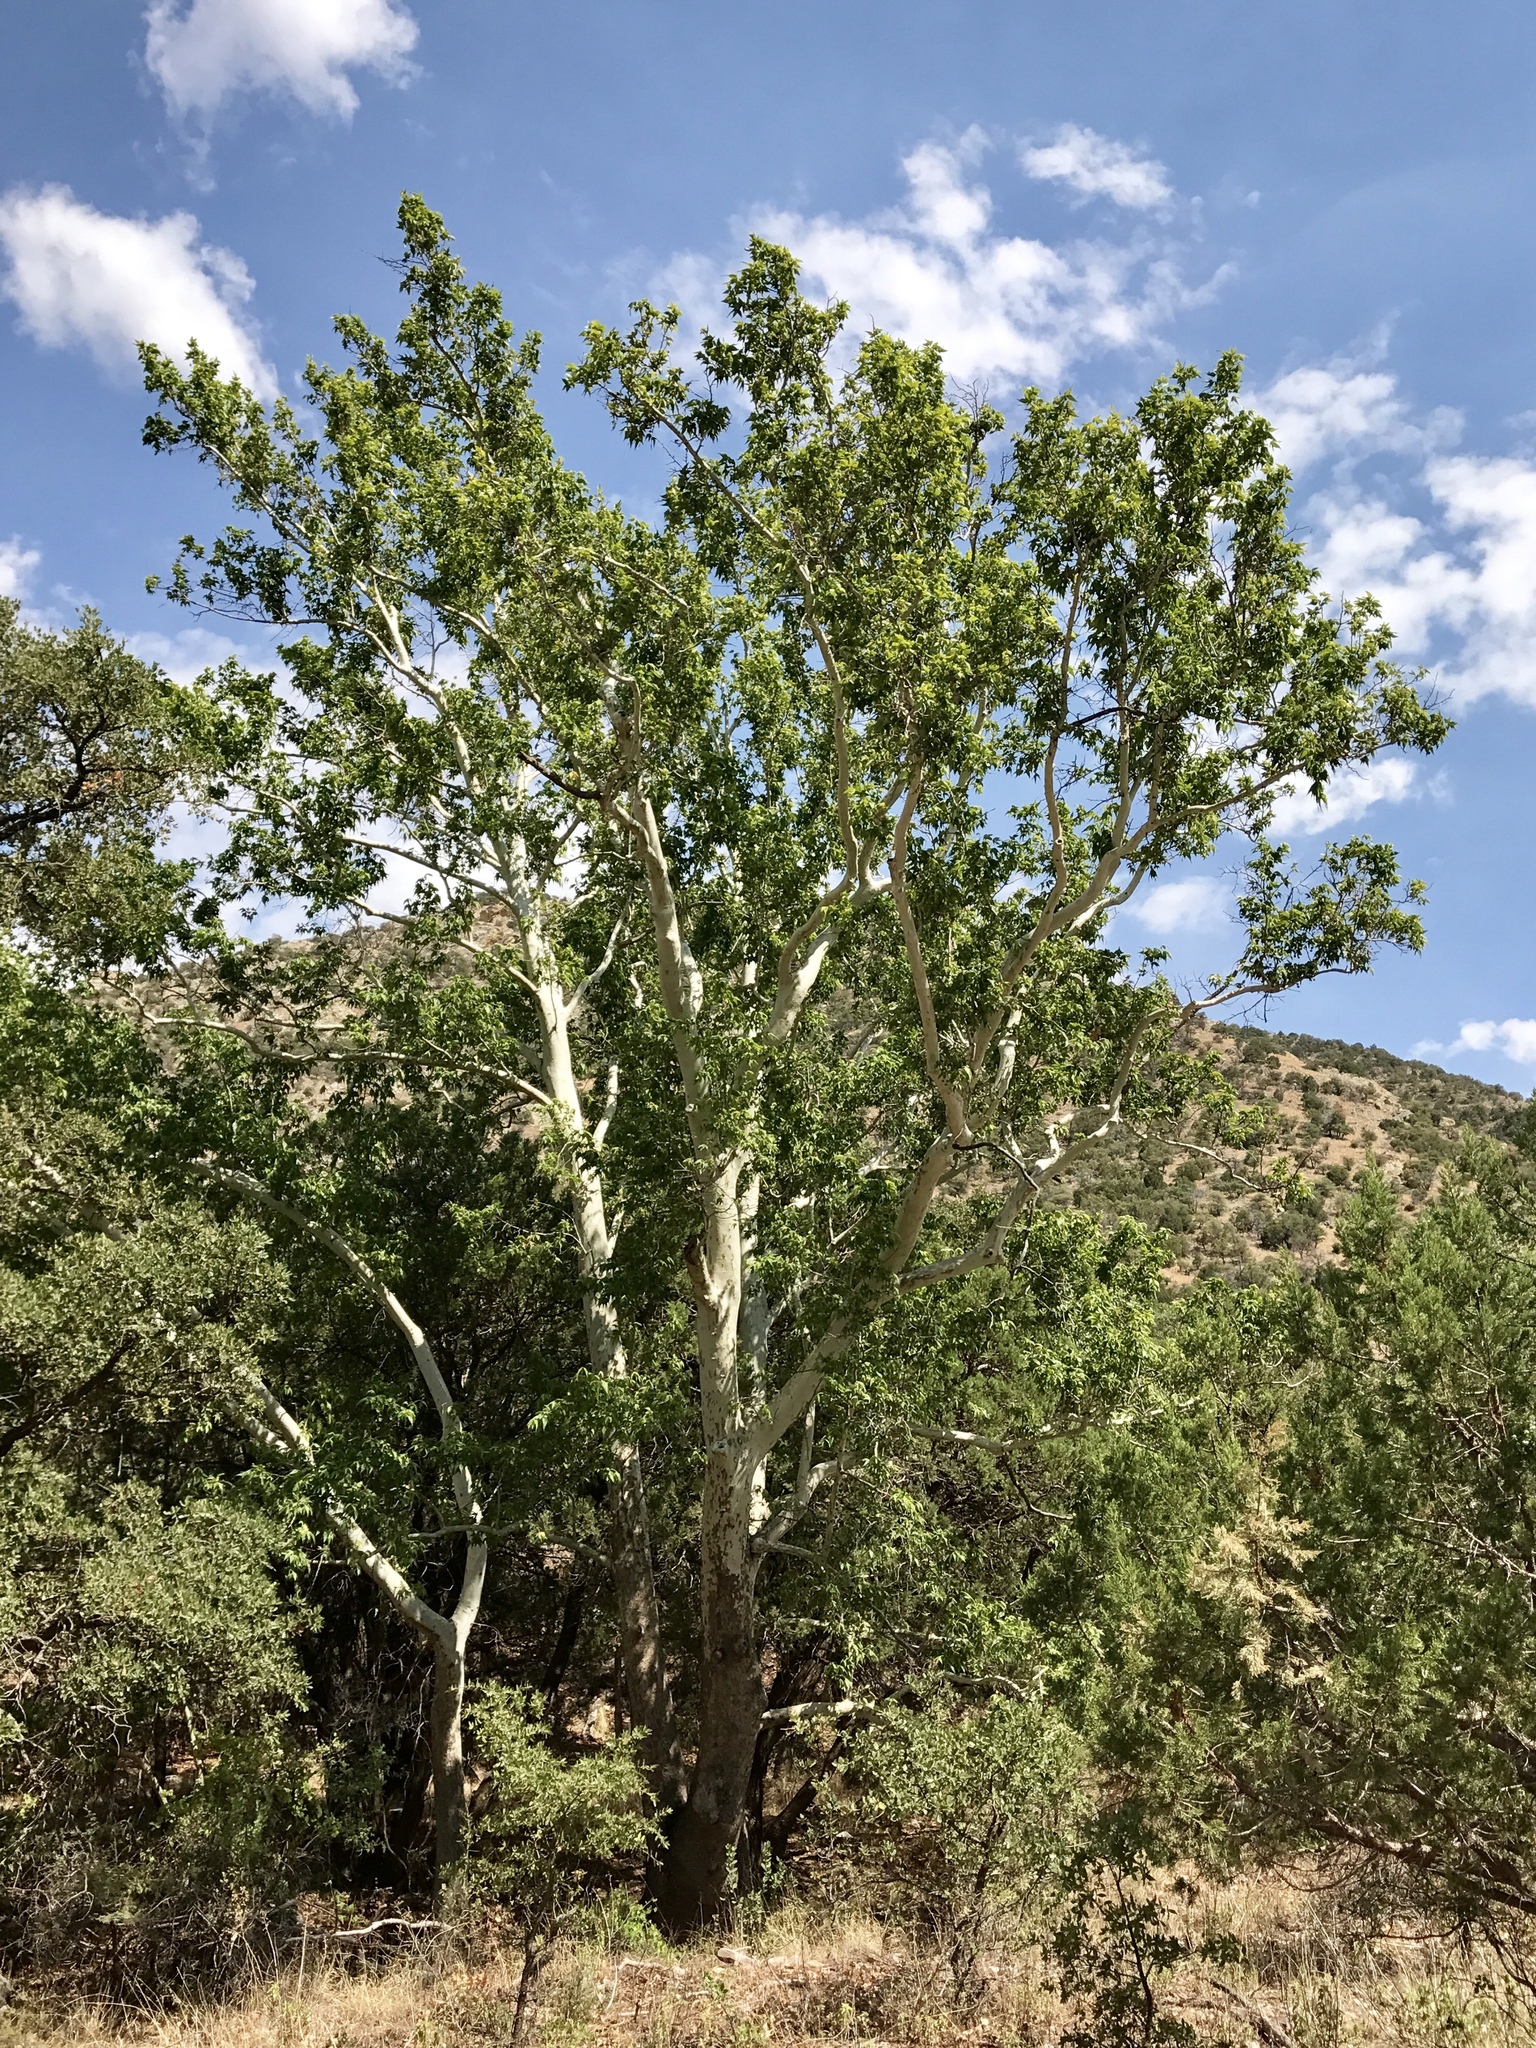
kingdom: Plantae
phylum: Tracheophyta
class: Magnoliopsida
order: Proteales
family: Platanaceae
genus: Platanus
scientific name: Platanus wrightii
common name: Arizona sycamore
